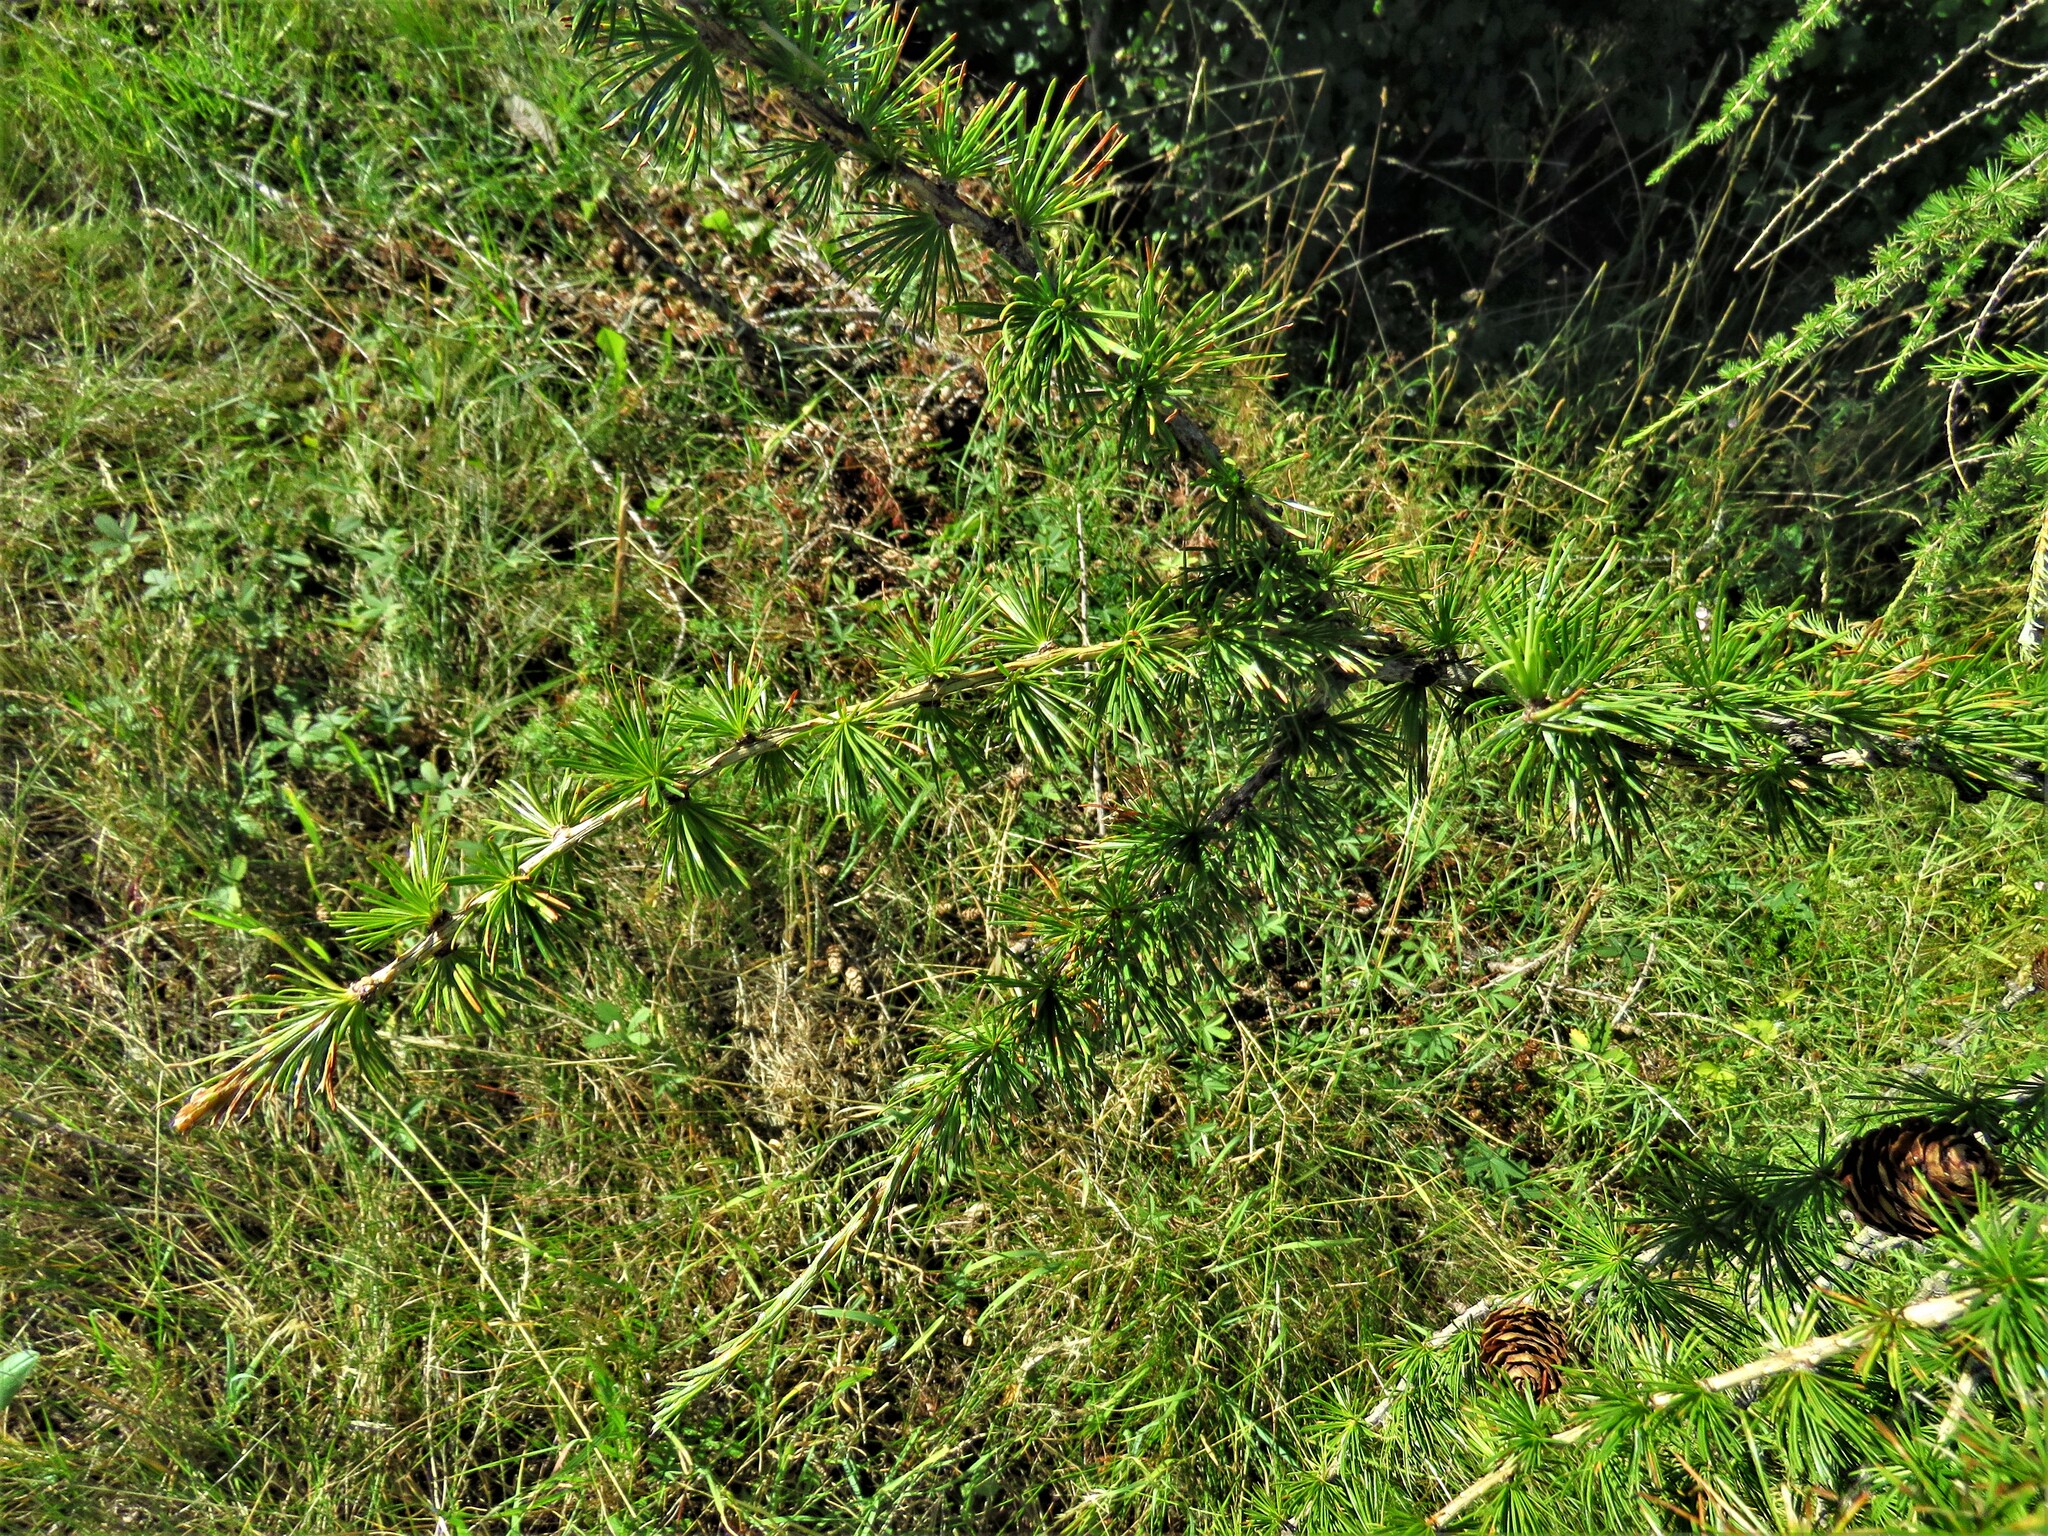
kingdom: Plantae
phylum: Tracheophyta
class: Pinopsida
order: Pinales
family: Pinaceae
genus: Larix
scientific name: Larix decidua
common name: European larch
